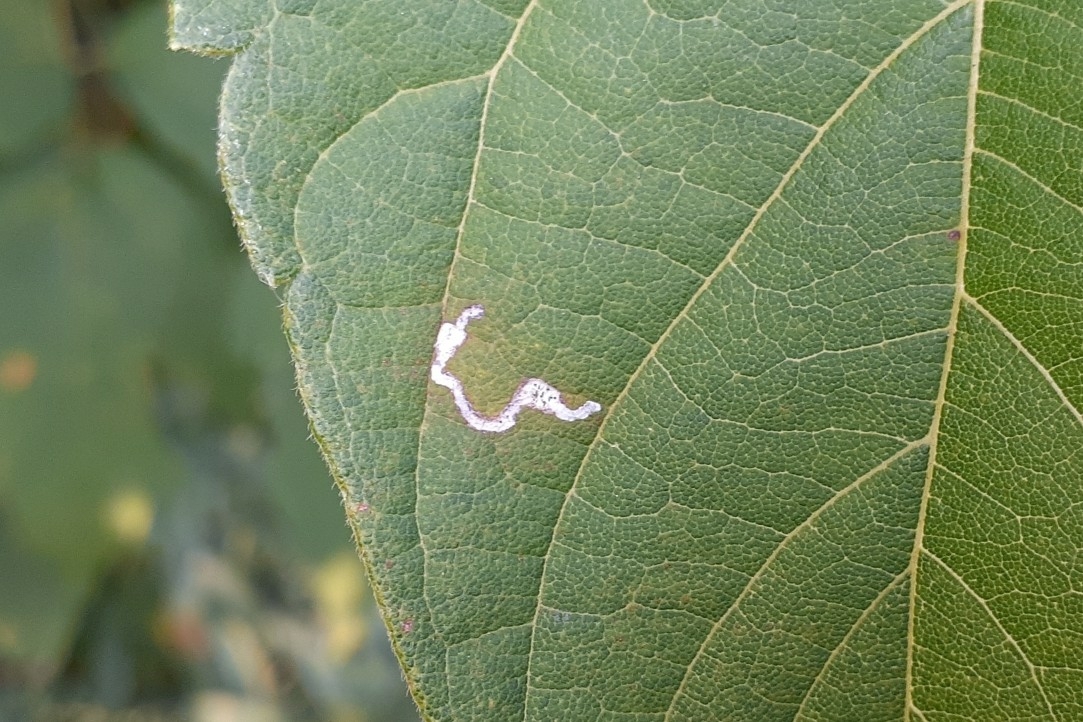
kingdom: Animalia
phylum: Arthropoda
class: Insecta
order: Lepidoptera
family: Gracillariidae
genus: Caloptilia
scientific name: Caloptilia negundella
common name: Leafminer
